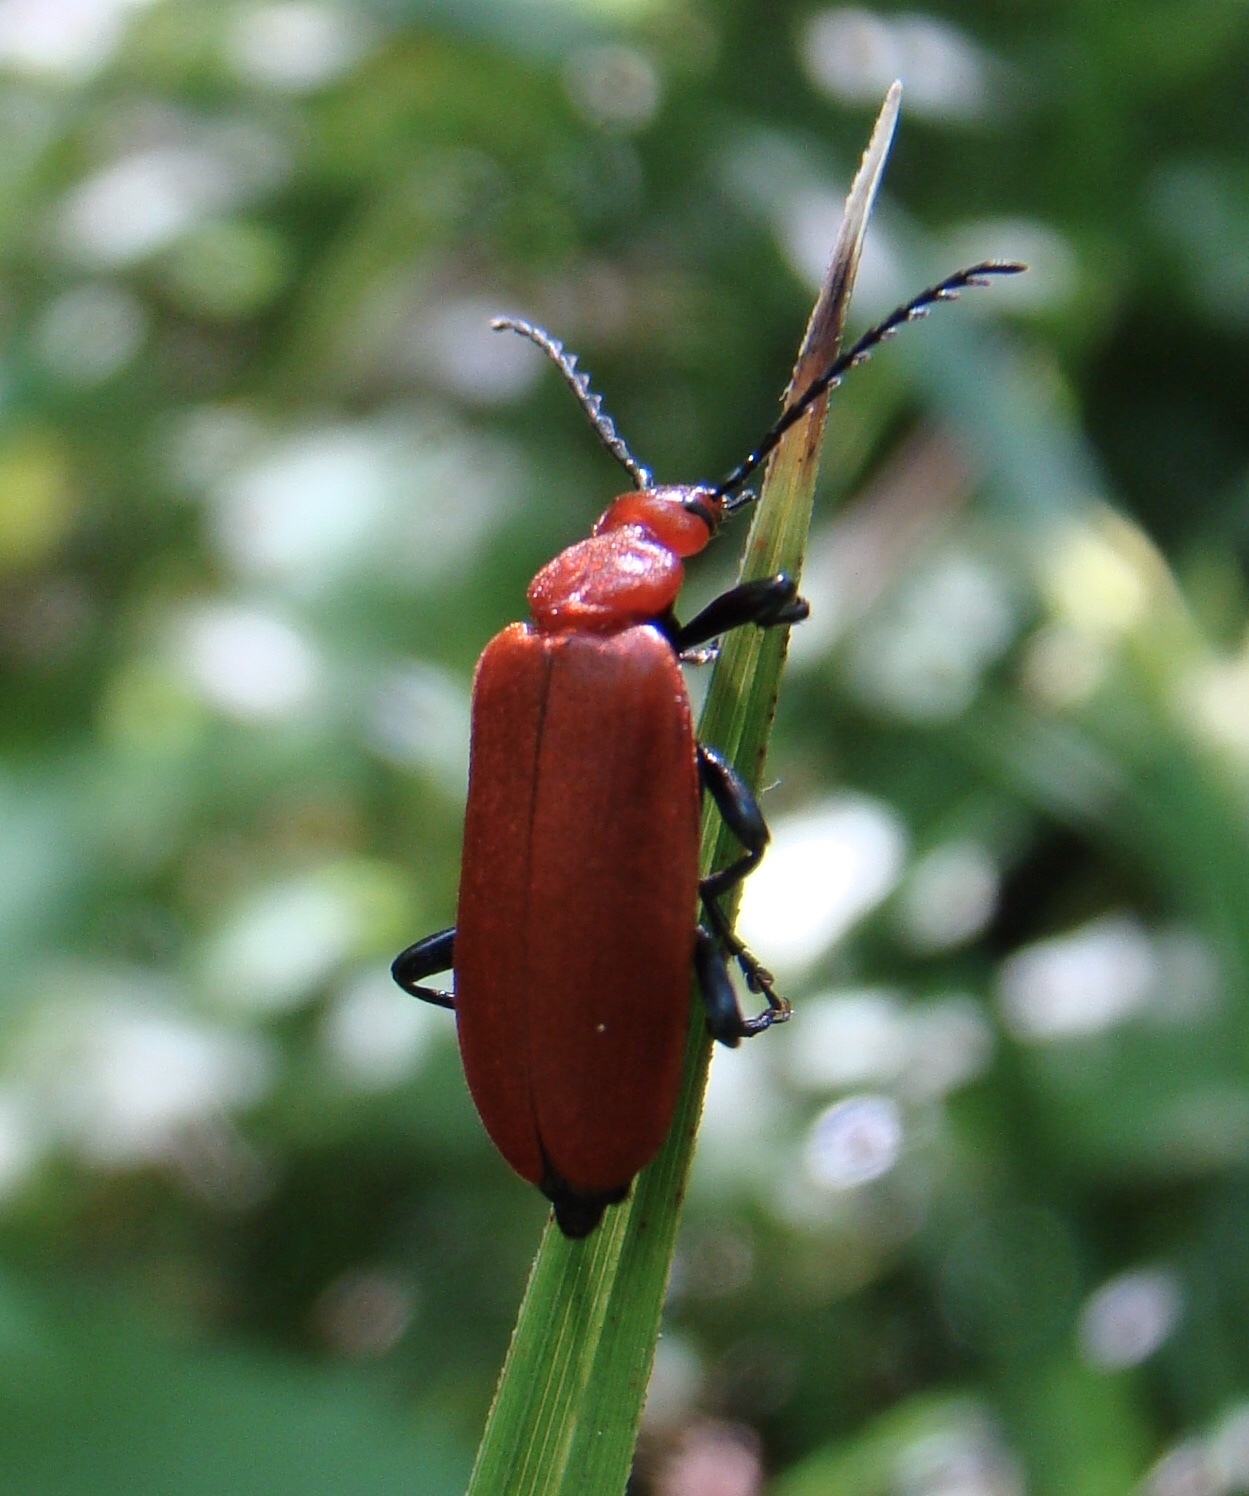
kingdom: Animalia
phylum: Arthropoda
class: Insecta
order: Coleoptera
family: Pyrochroidae
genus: Pyrochroa
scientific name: Pyrochroa serraticornis
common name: Red-headed cardinal beetle
